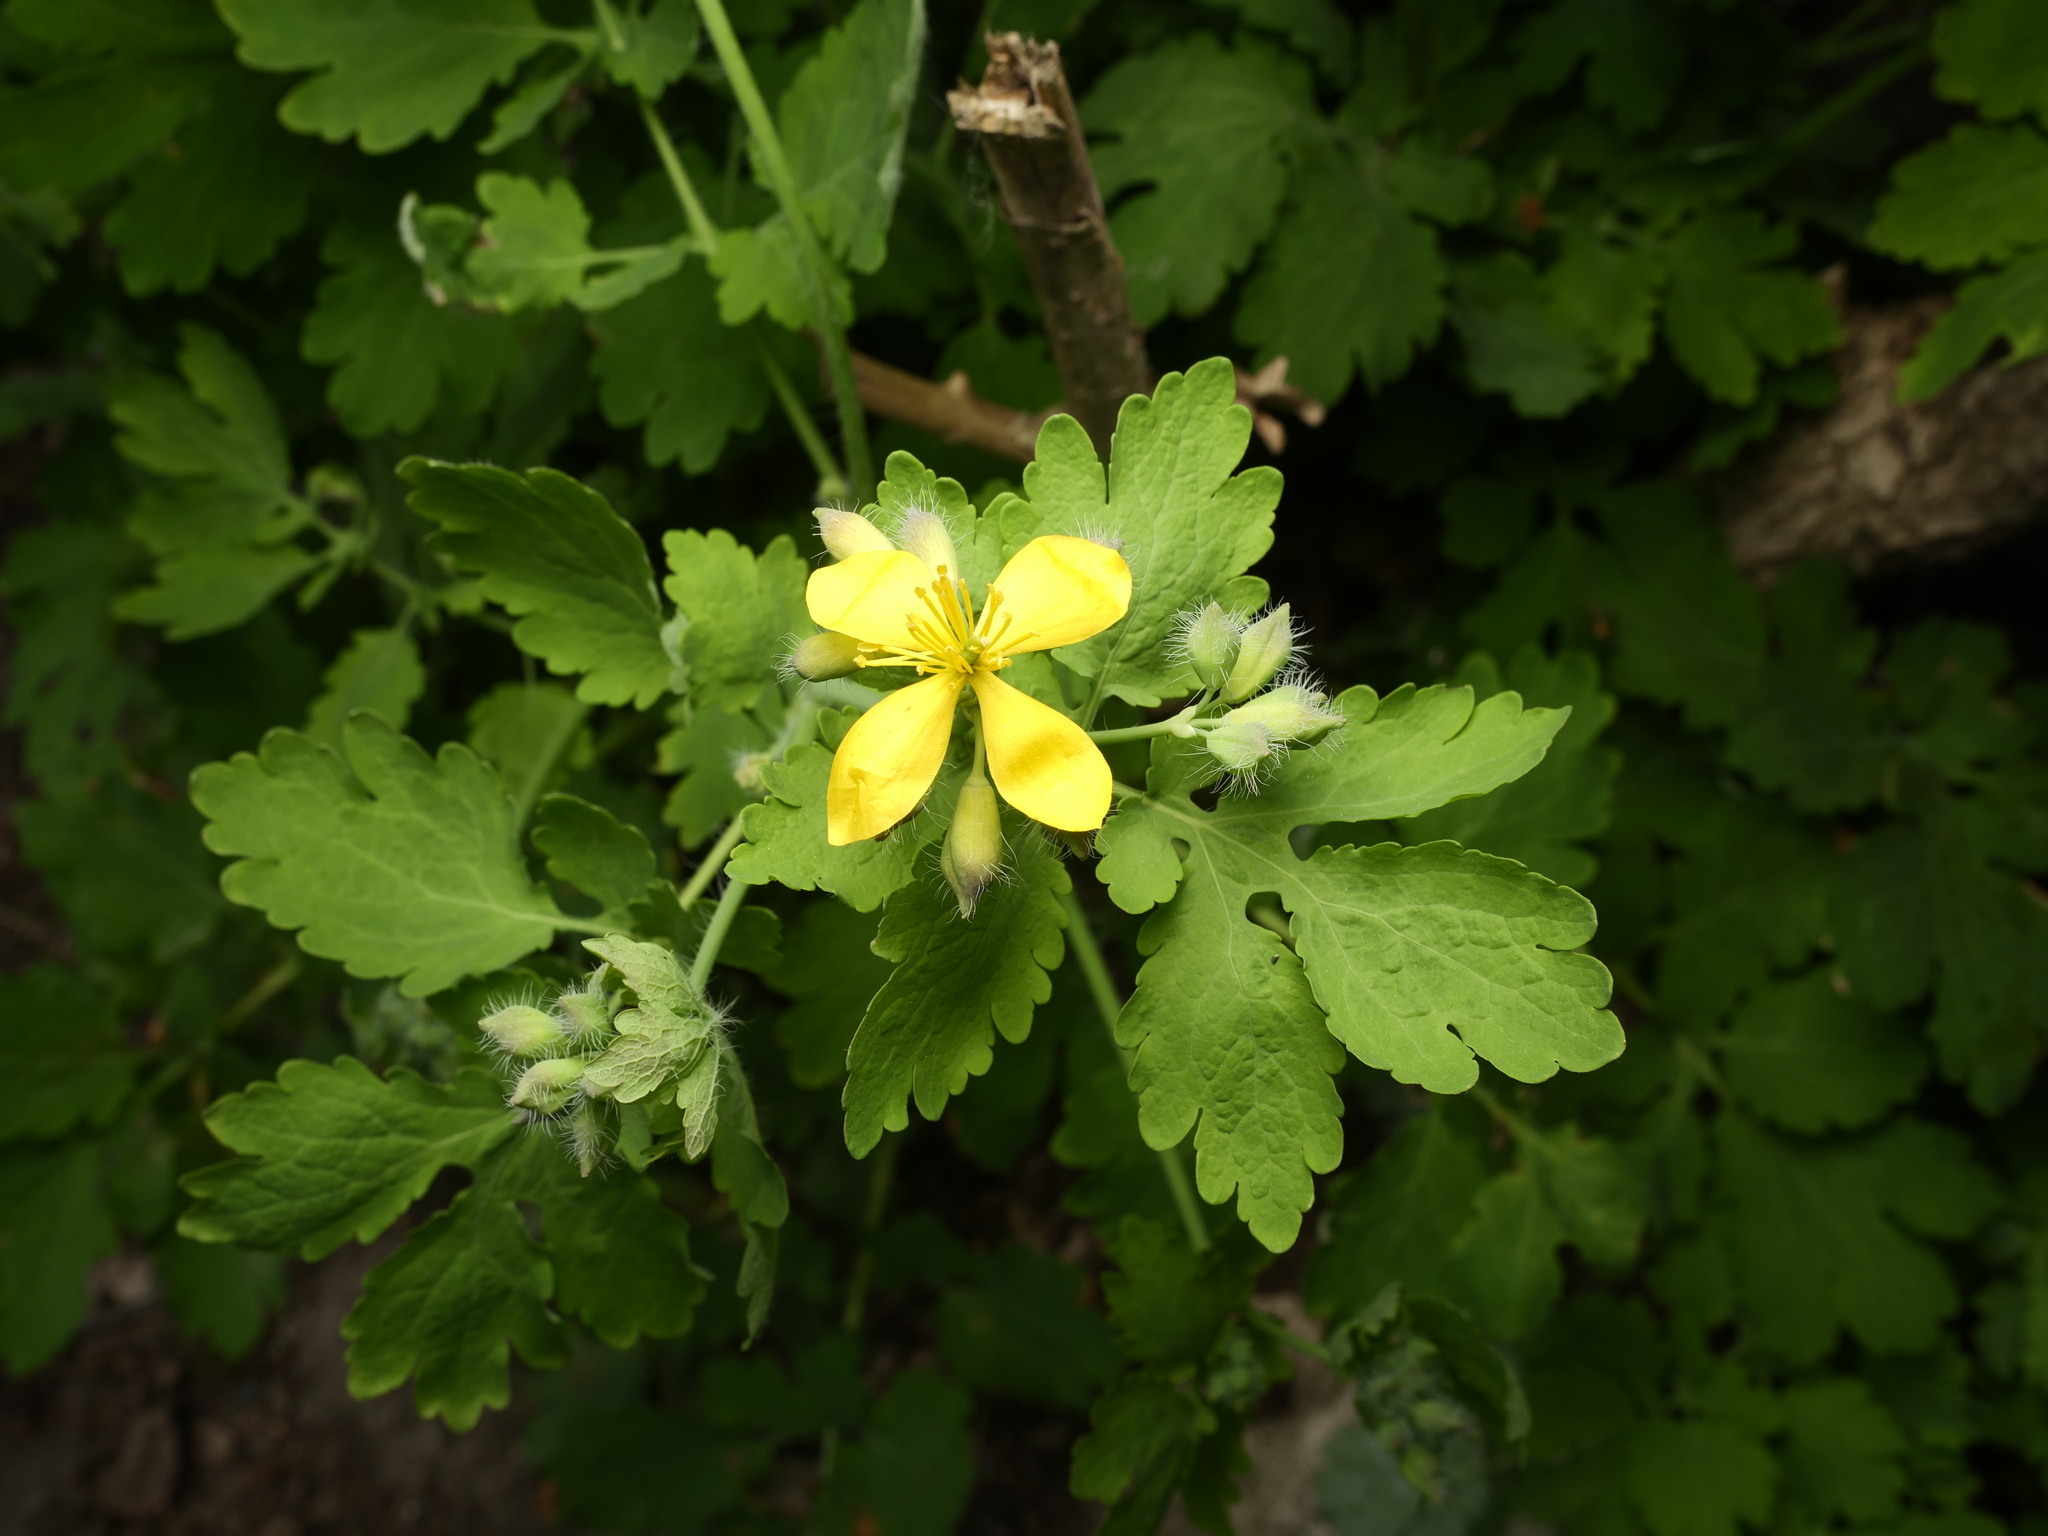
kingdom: Plantae
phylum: Tracheophyta
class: Magnoliopsida
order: Ranunculales
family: Papaveraceae
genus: Chelidonium
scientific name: Chelidonium majus
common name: Greater celandine
